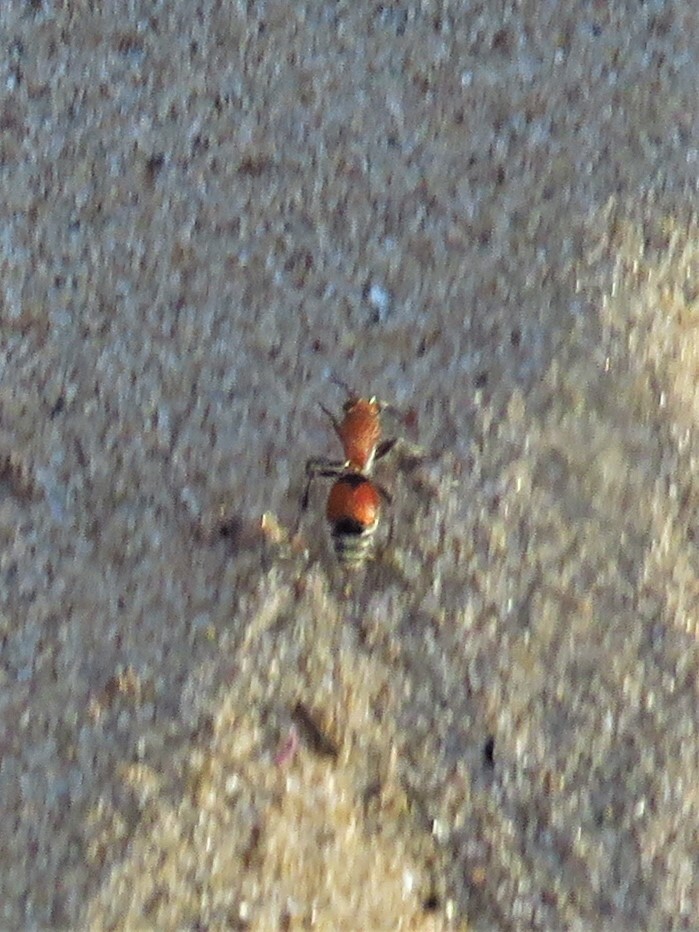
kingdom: Animalia
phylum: Arthropoda
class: Insecta
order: Hymenoptera
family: Mutillidae
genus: Dasymutilla
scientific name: Dasymutilla
